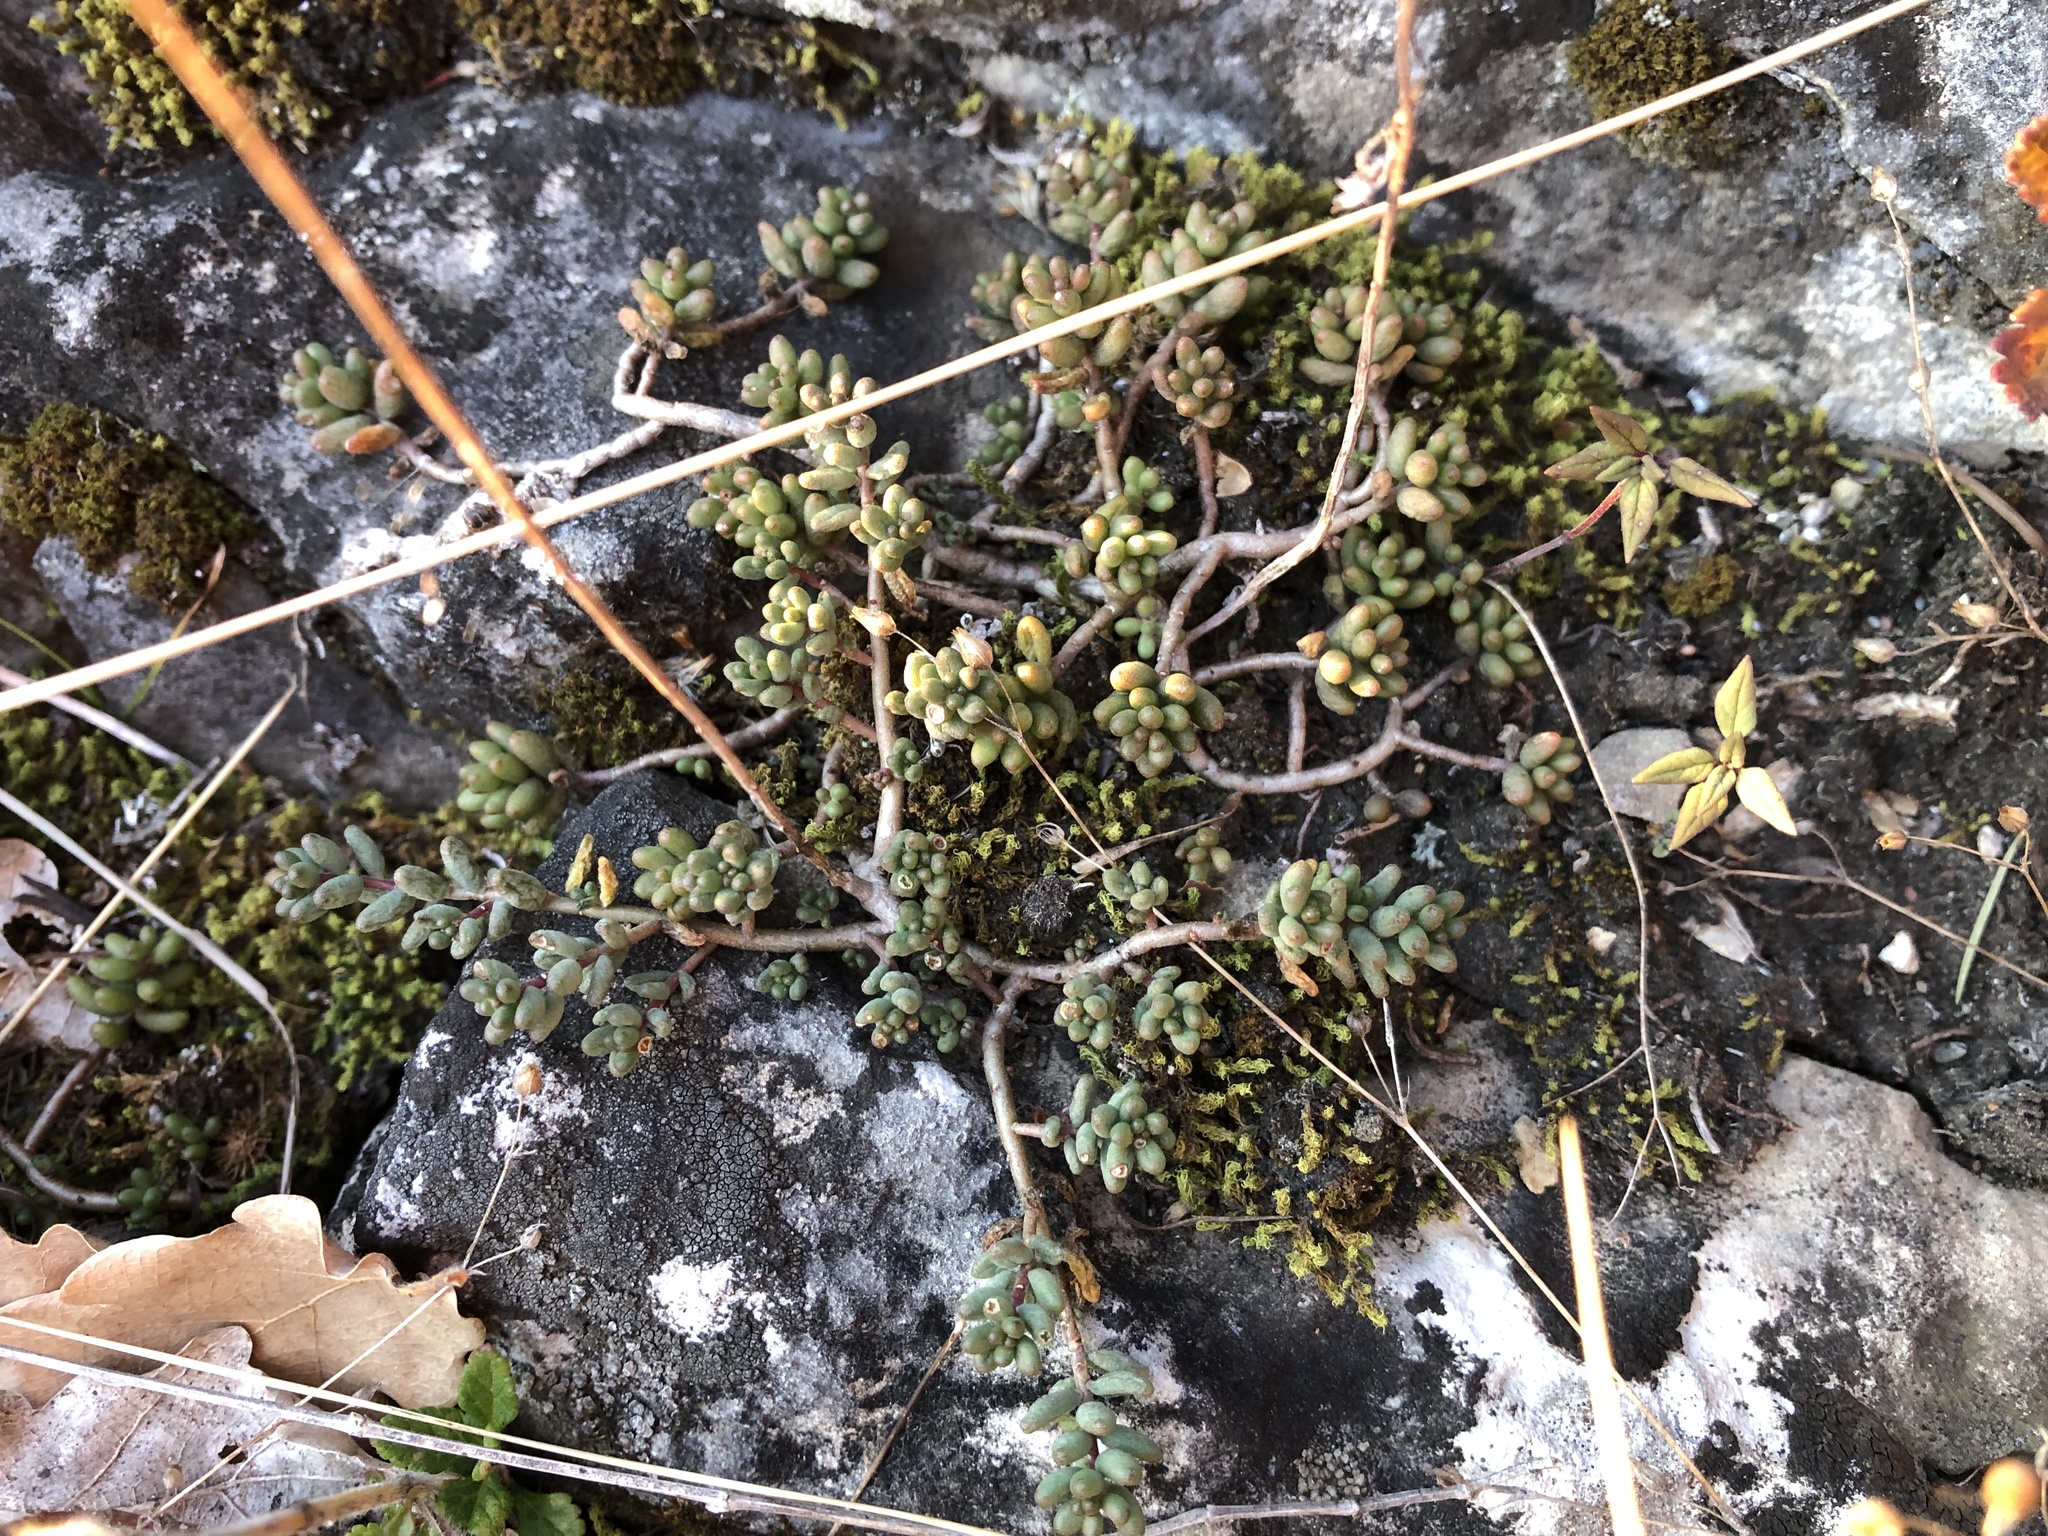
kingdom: Plantae
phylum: Tracheophyta
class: Magnoliopsida
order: Saxifragales
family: Crassulaceae
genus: Sedum
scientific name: Sedum album
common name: White stonecrop
